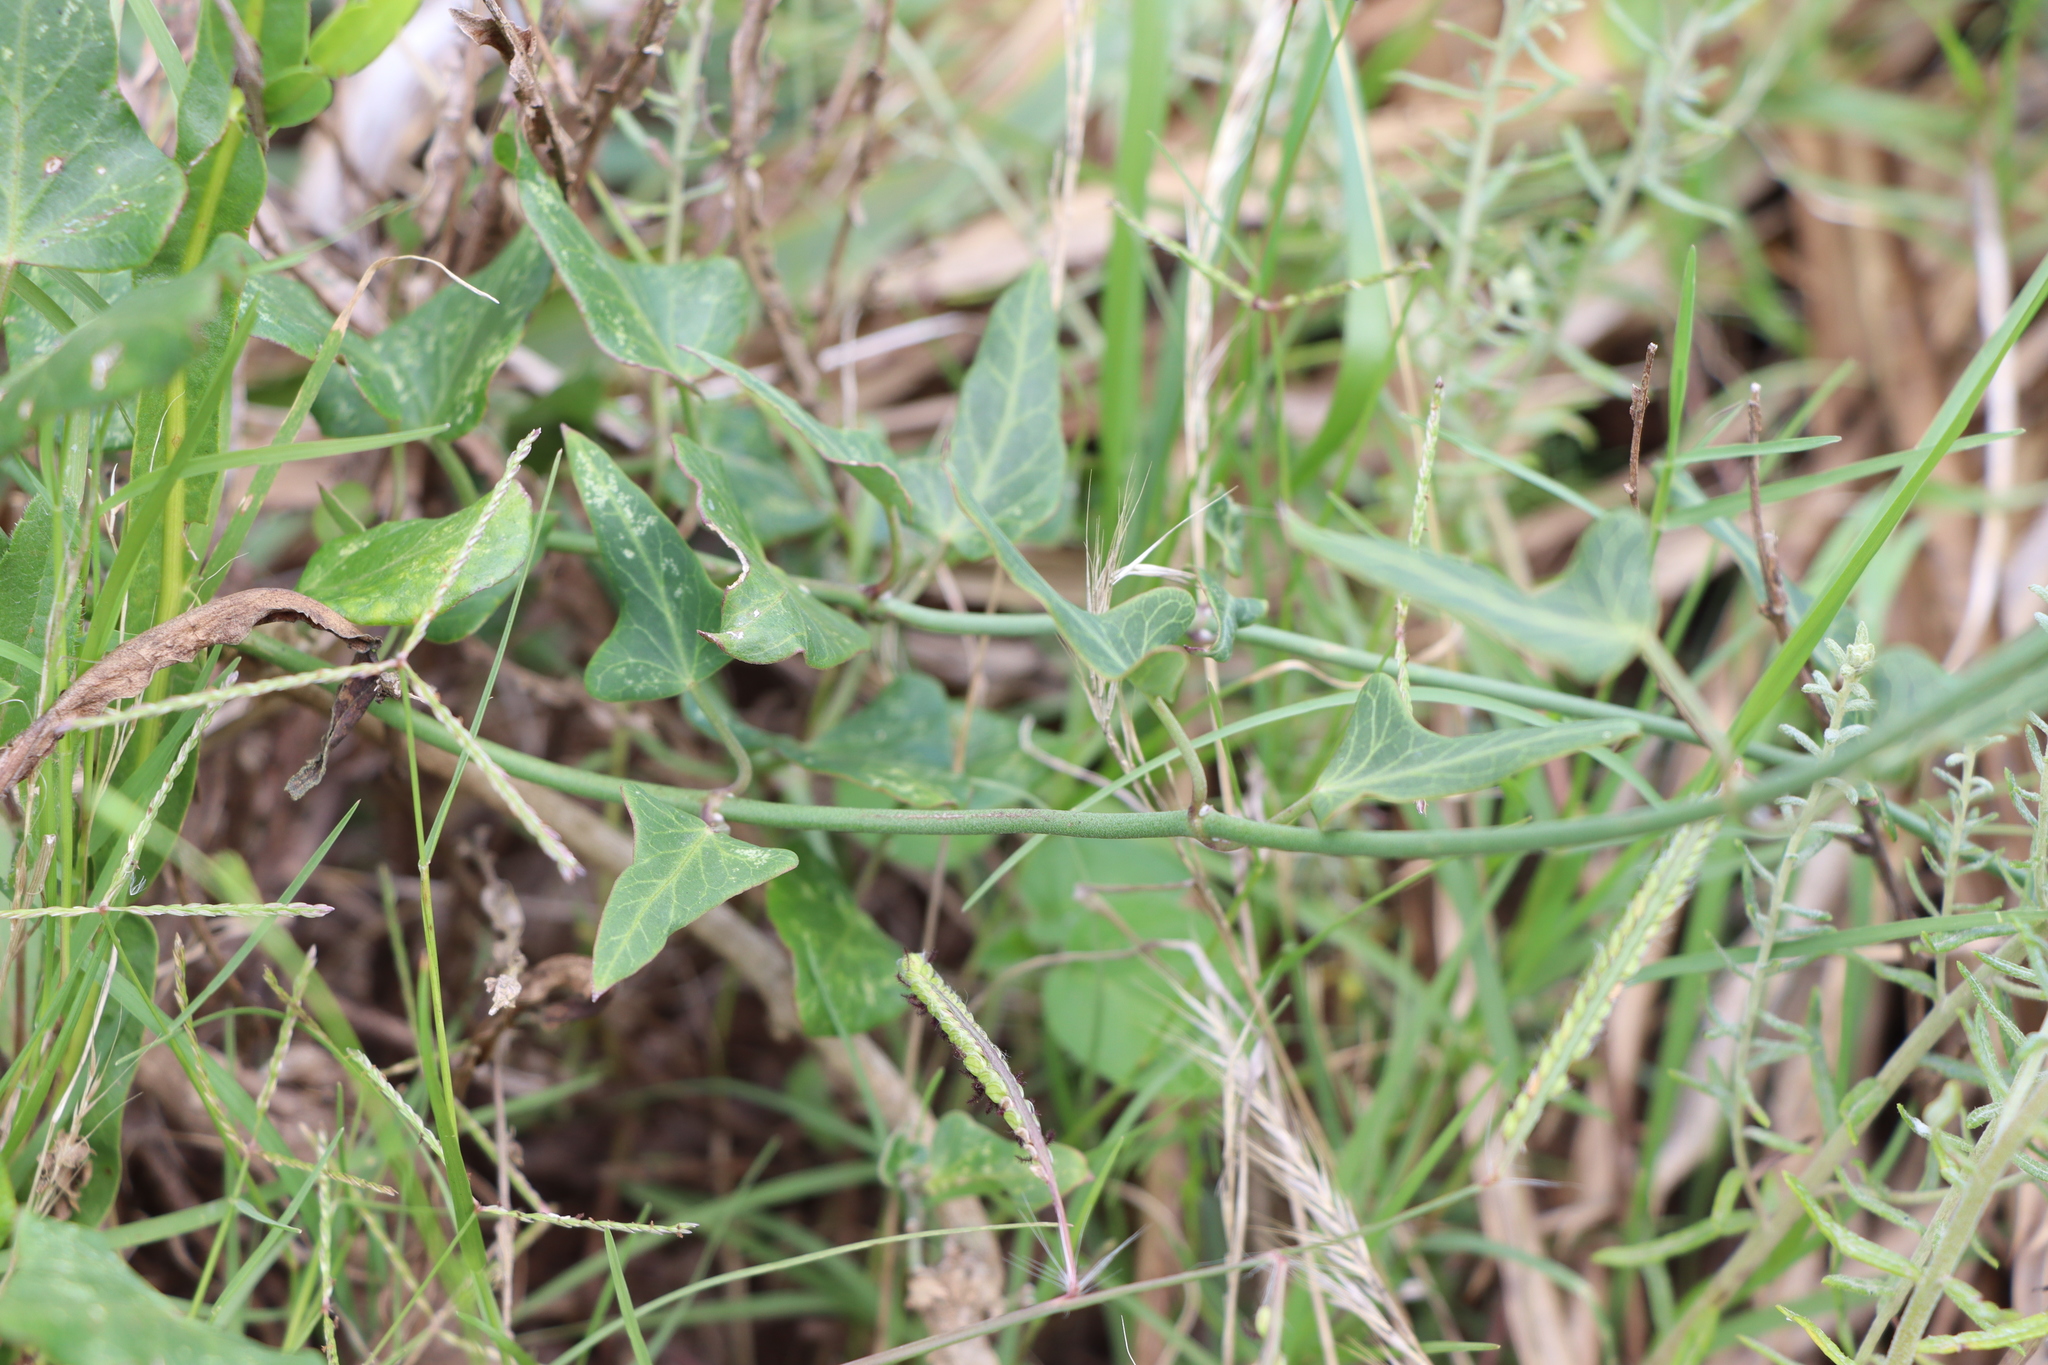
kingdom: Plantae
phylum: Tracheophyta
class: Magnoliopsida
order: Gentianales
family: Apocynaceae
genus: Araujia
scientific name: Araujia megapotamica
